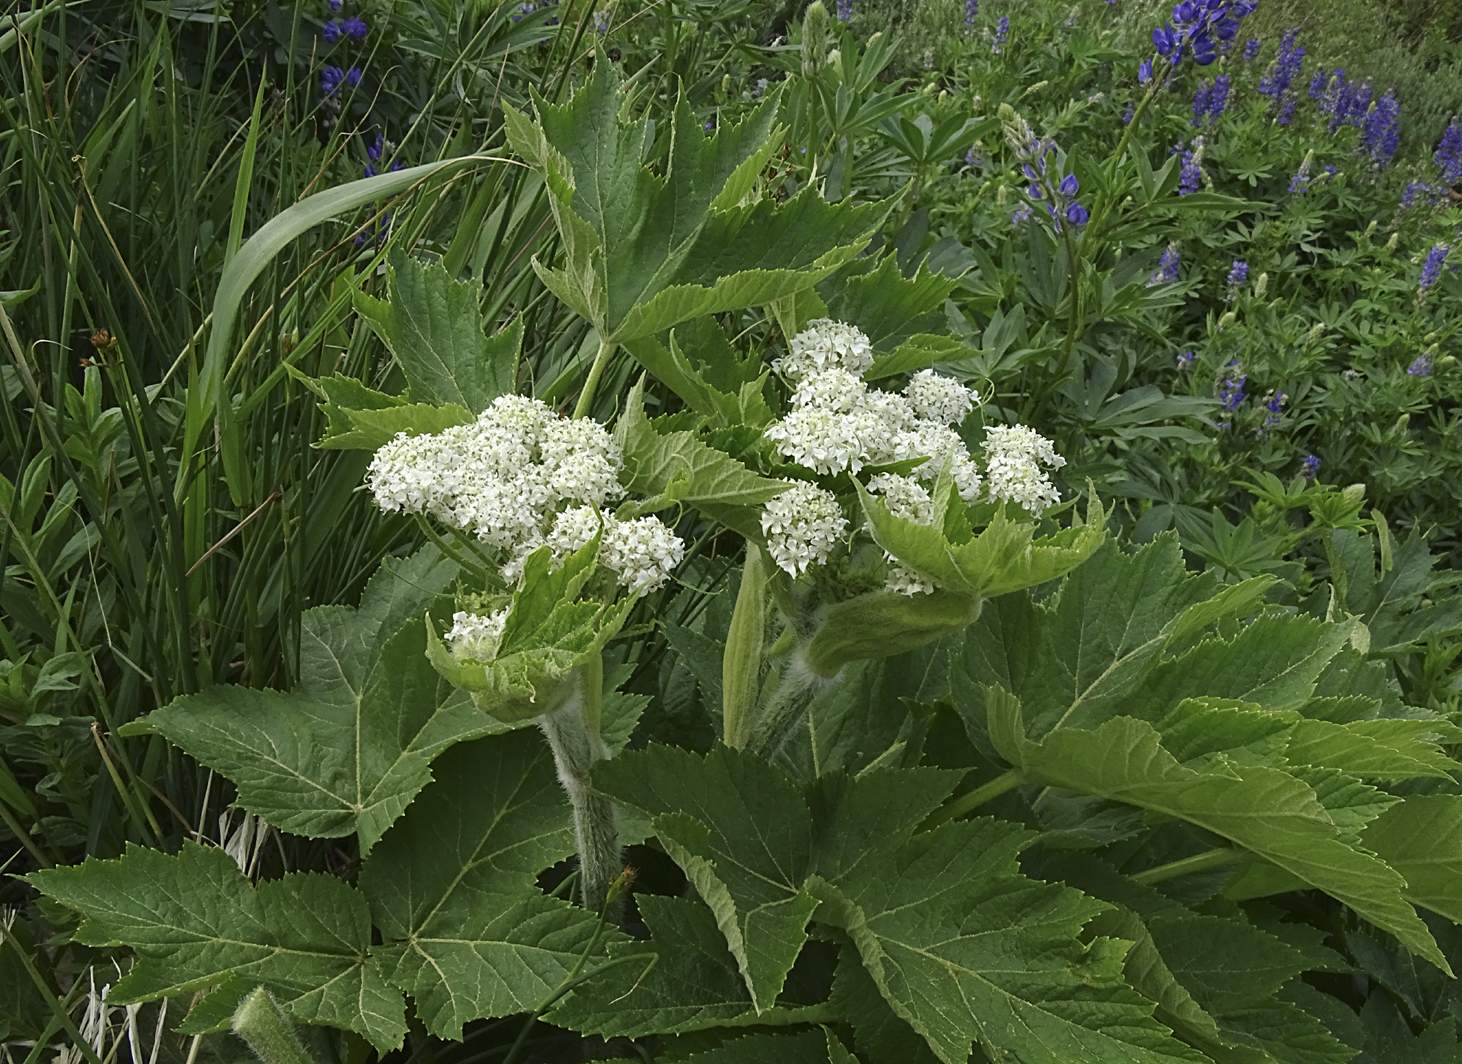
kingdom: Plantae
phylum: Tracheophyta
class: Magnoliopsida
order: Apiales
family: Apiaceae
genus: Heracleum
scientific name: Heracleum maximum
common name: American cow parsnip
